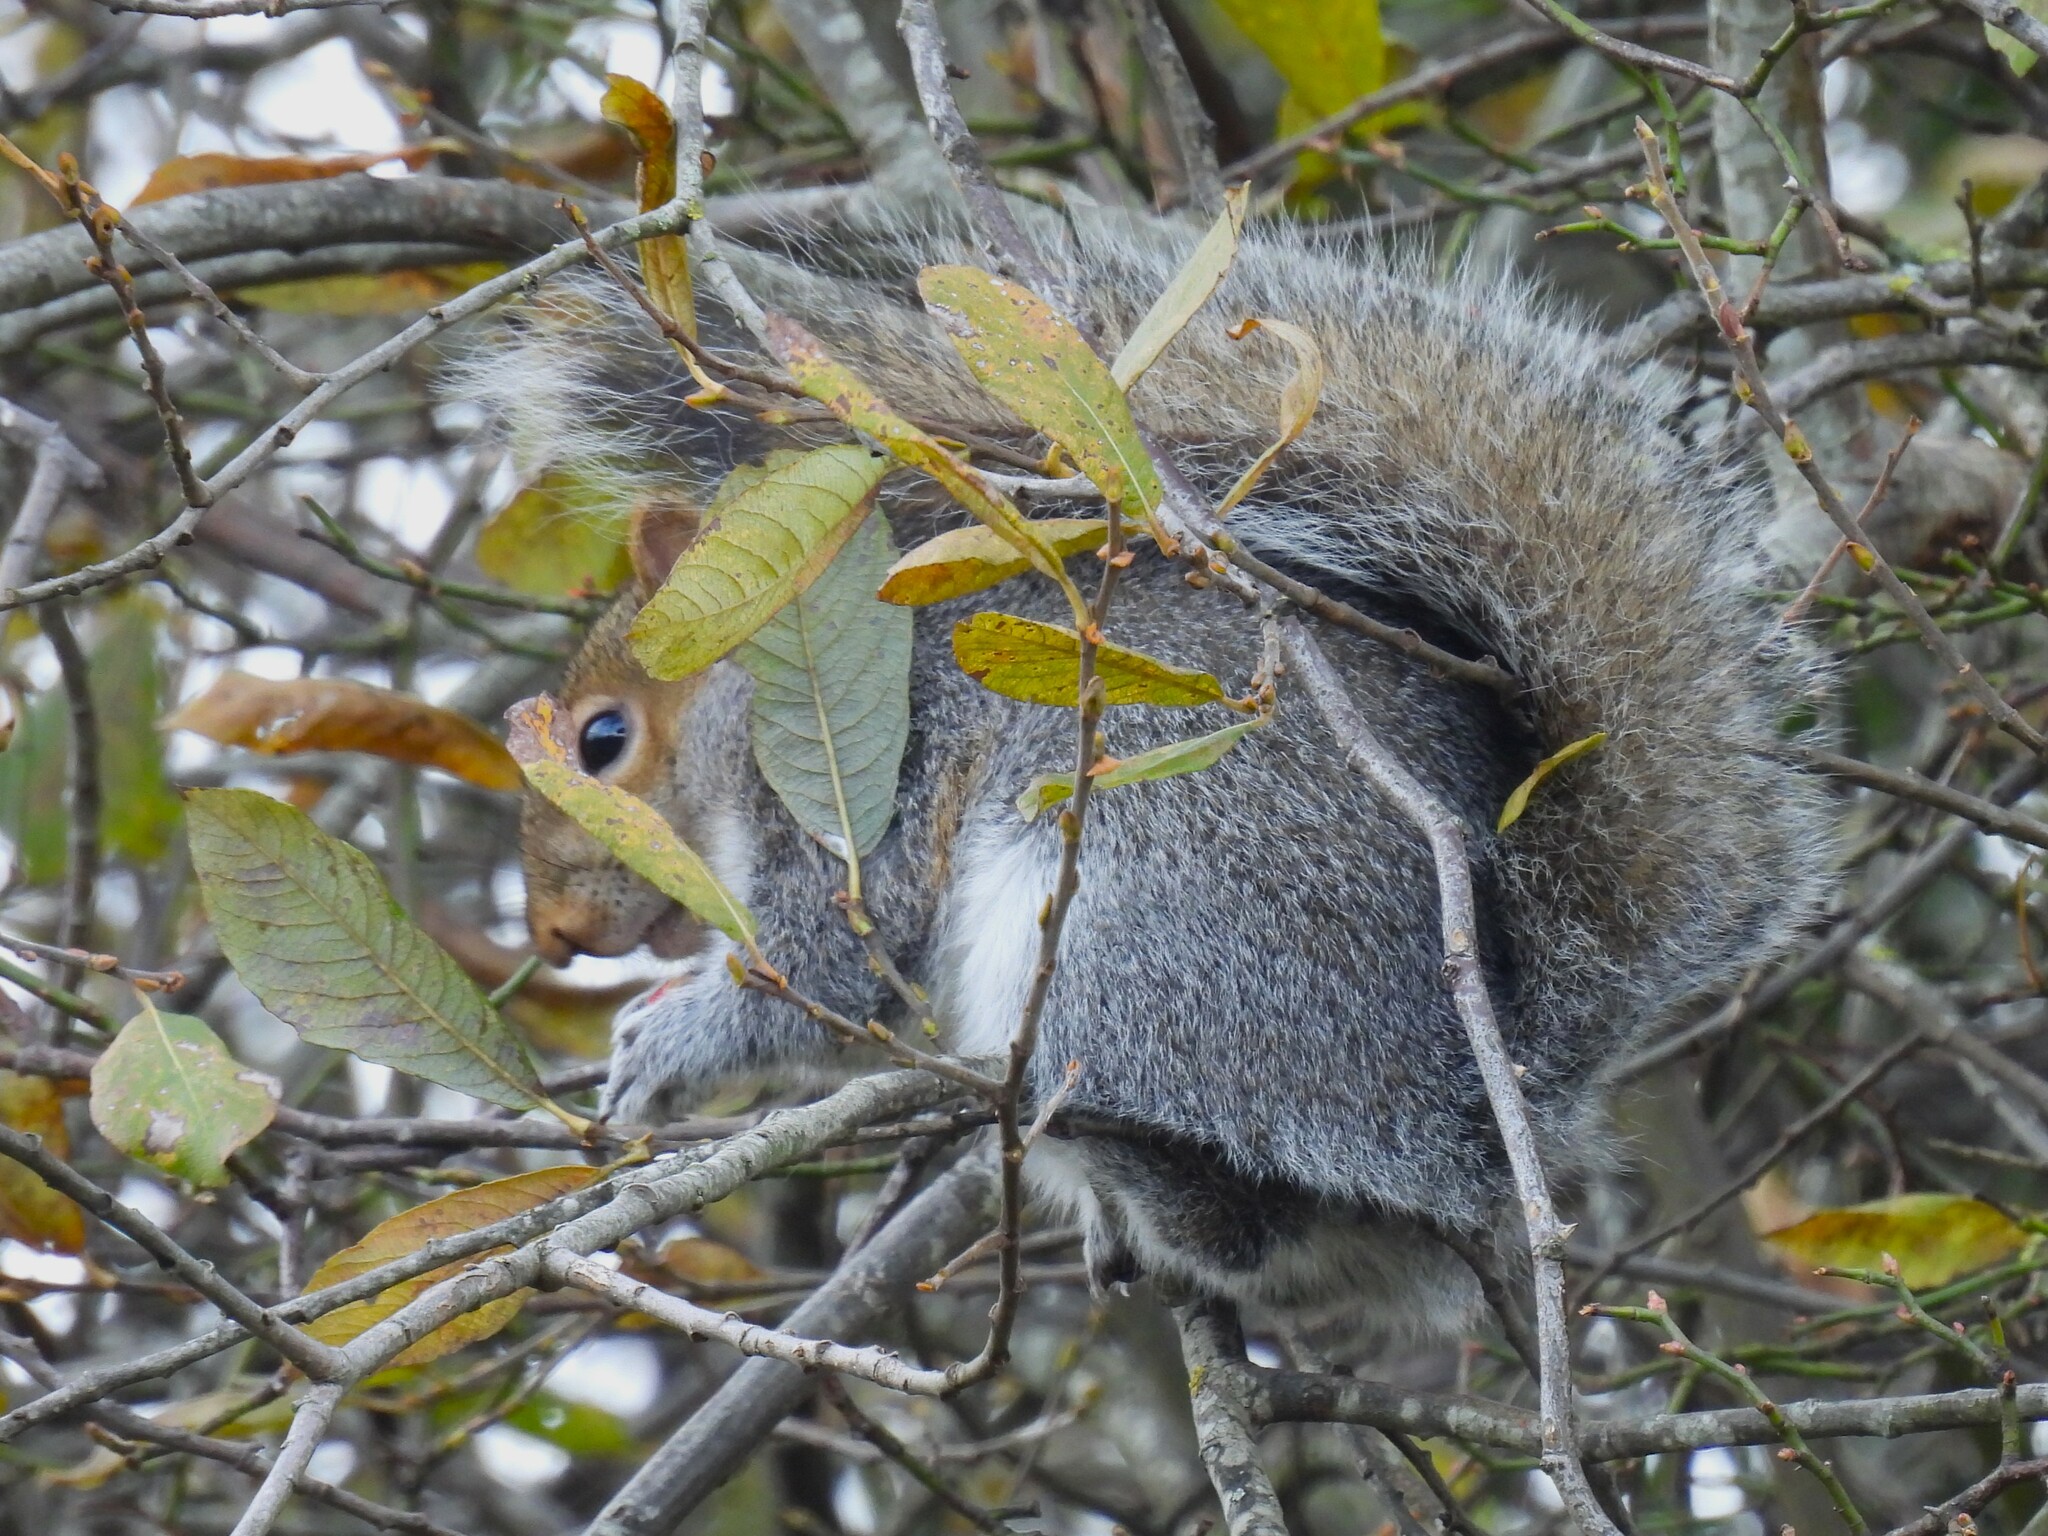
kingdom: Animalia
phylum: Chordata
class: Mammalia
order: Rodentia
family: Sciuridae
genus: Sciurus
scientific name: Sciurus carolinensis
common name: Eastern gray squirrel
